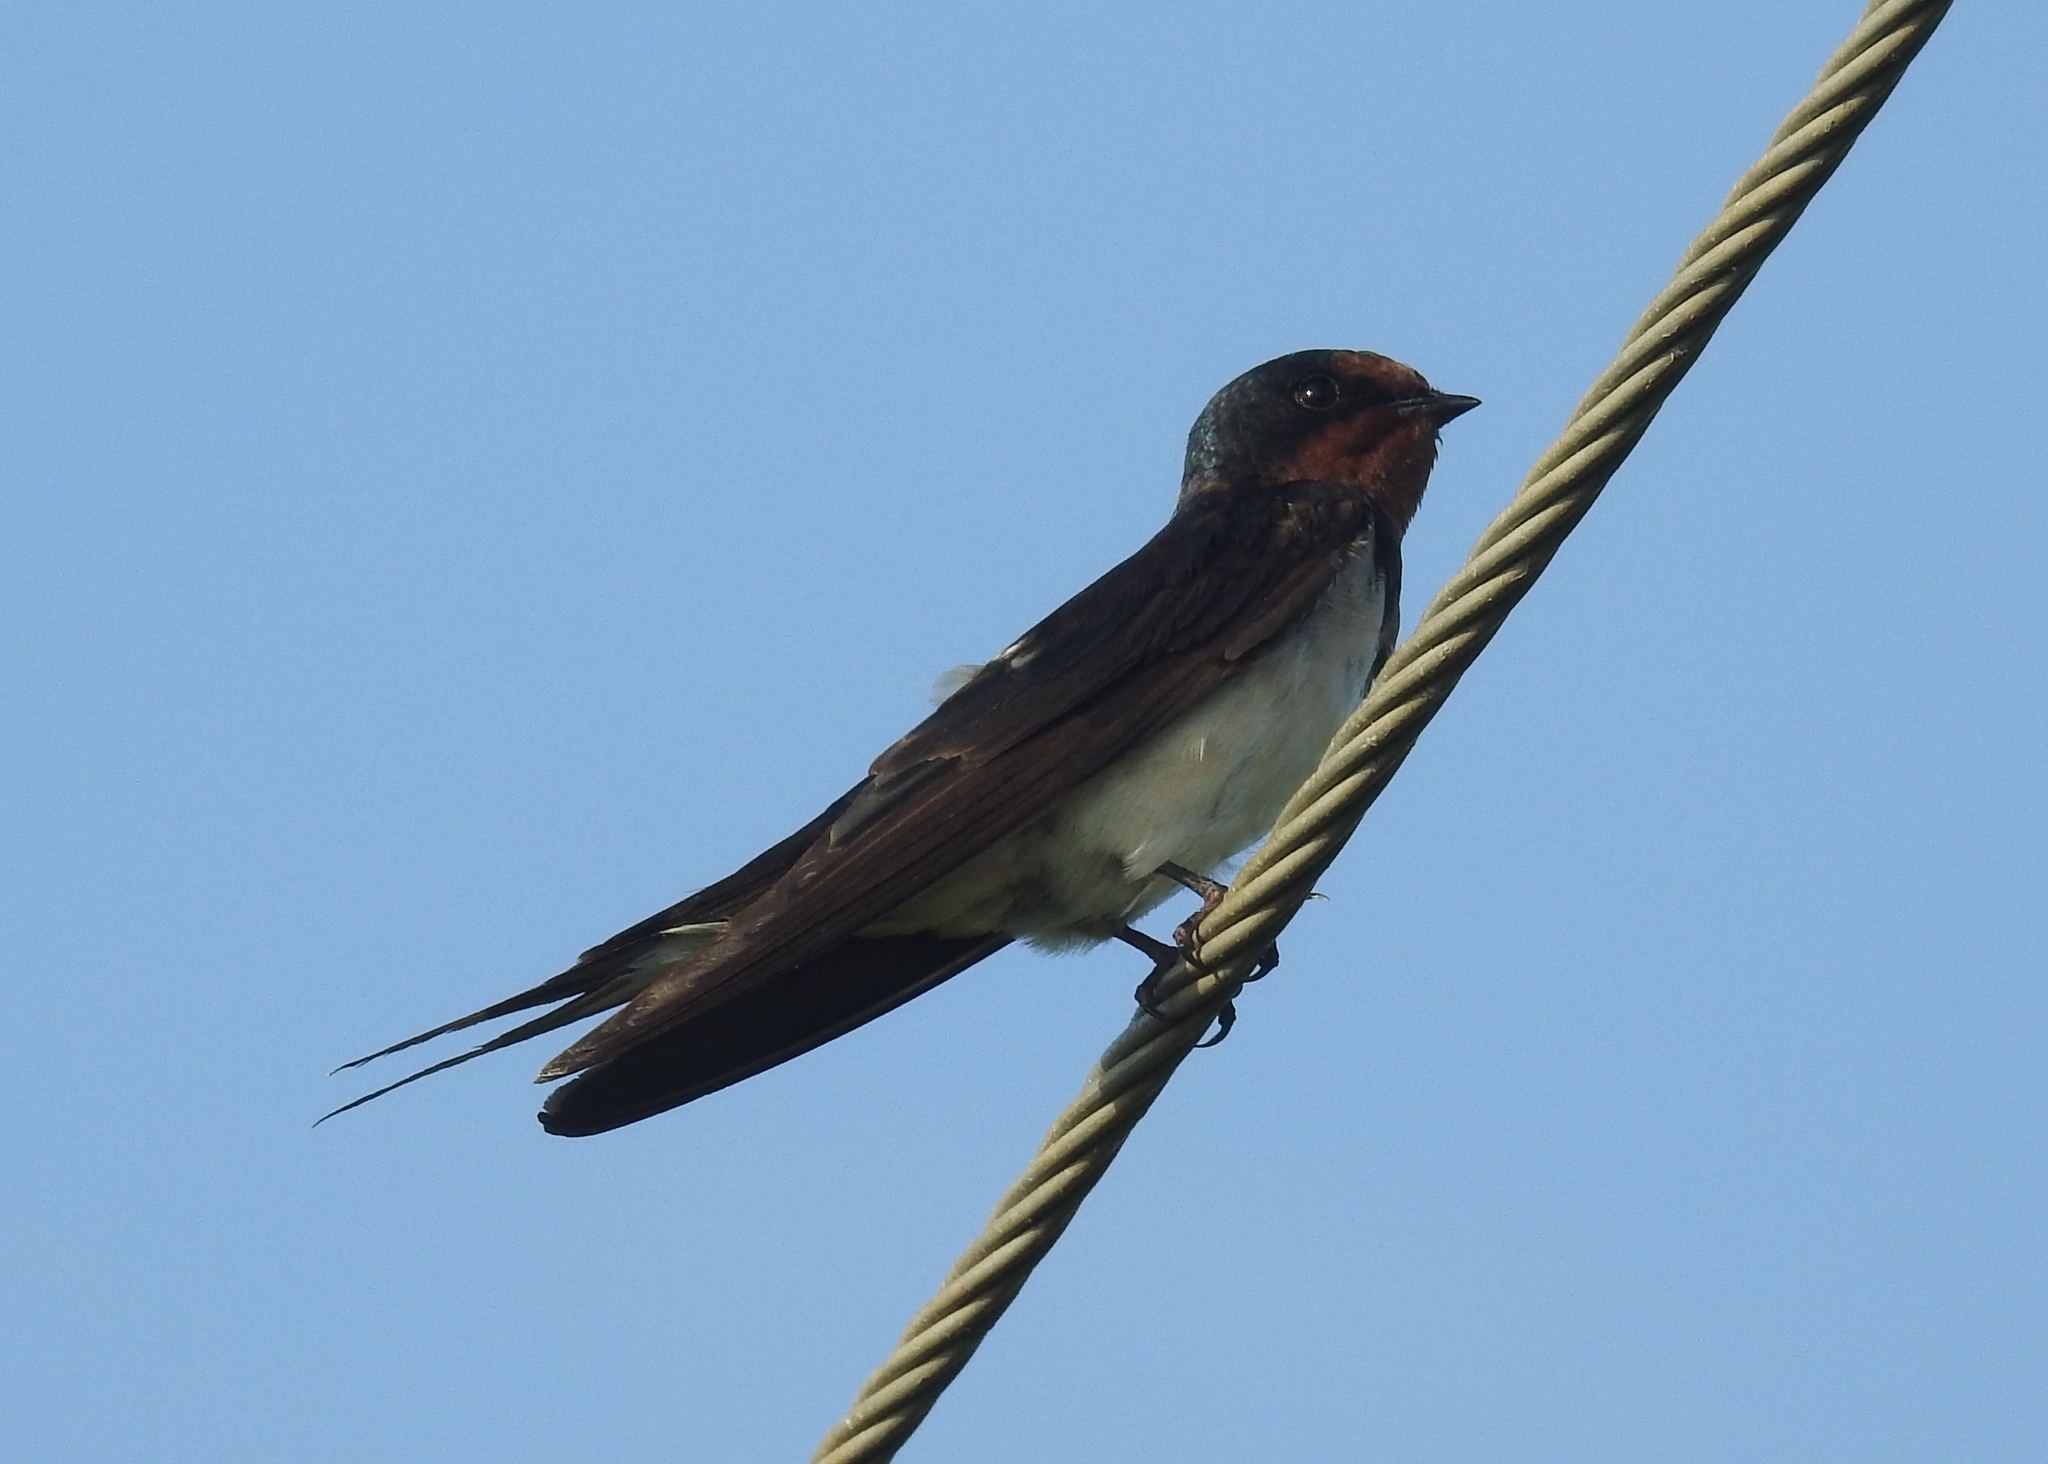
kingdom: Animalia
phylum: Chordata
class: Aves
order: Passeriformes
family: Hirundinidae
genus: Hirundo
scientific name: Hirundo rustica
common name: Barn swallow
